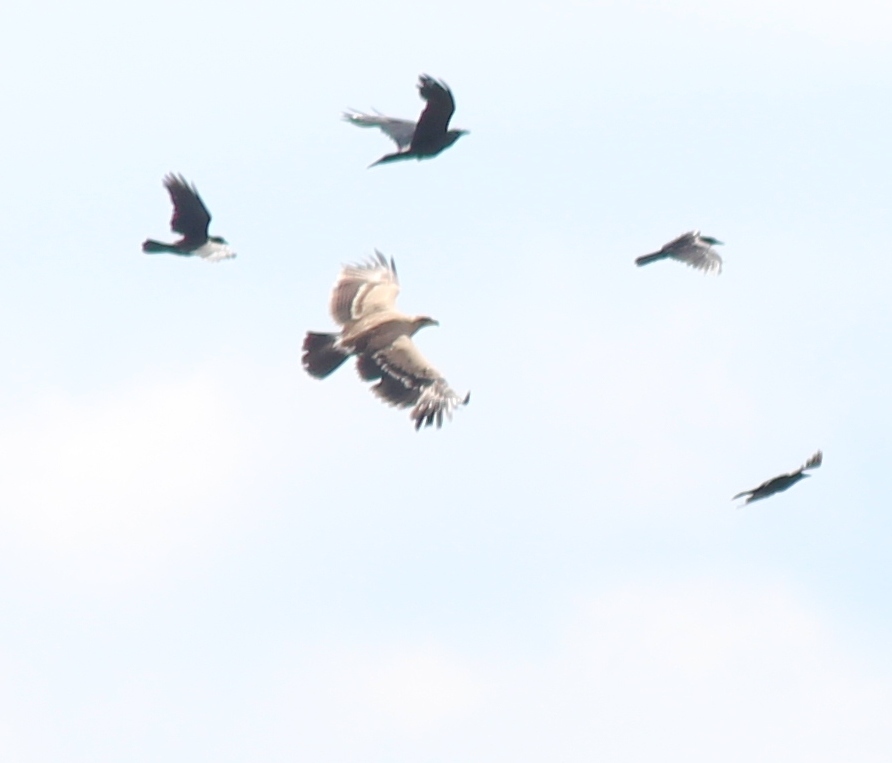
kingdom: Animalia
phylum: Chordata
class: Aves
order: Accipitriformes
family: Accipitridae
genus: Aquila
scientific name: Aquila nipalensis
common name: Steppe eagle
